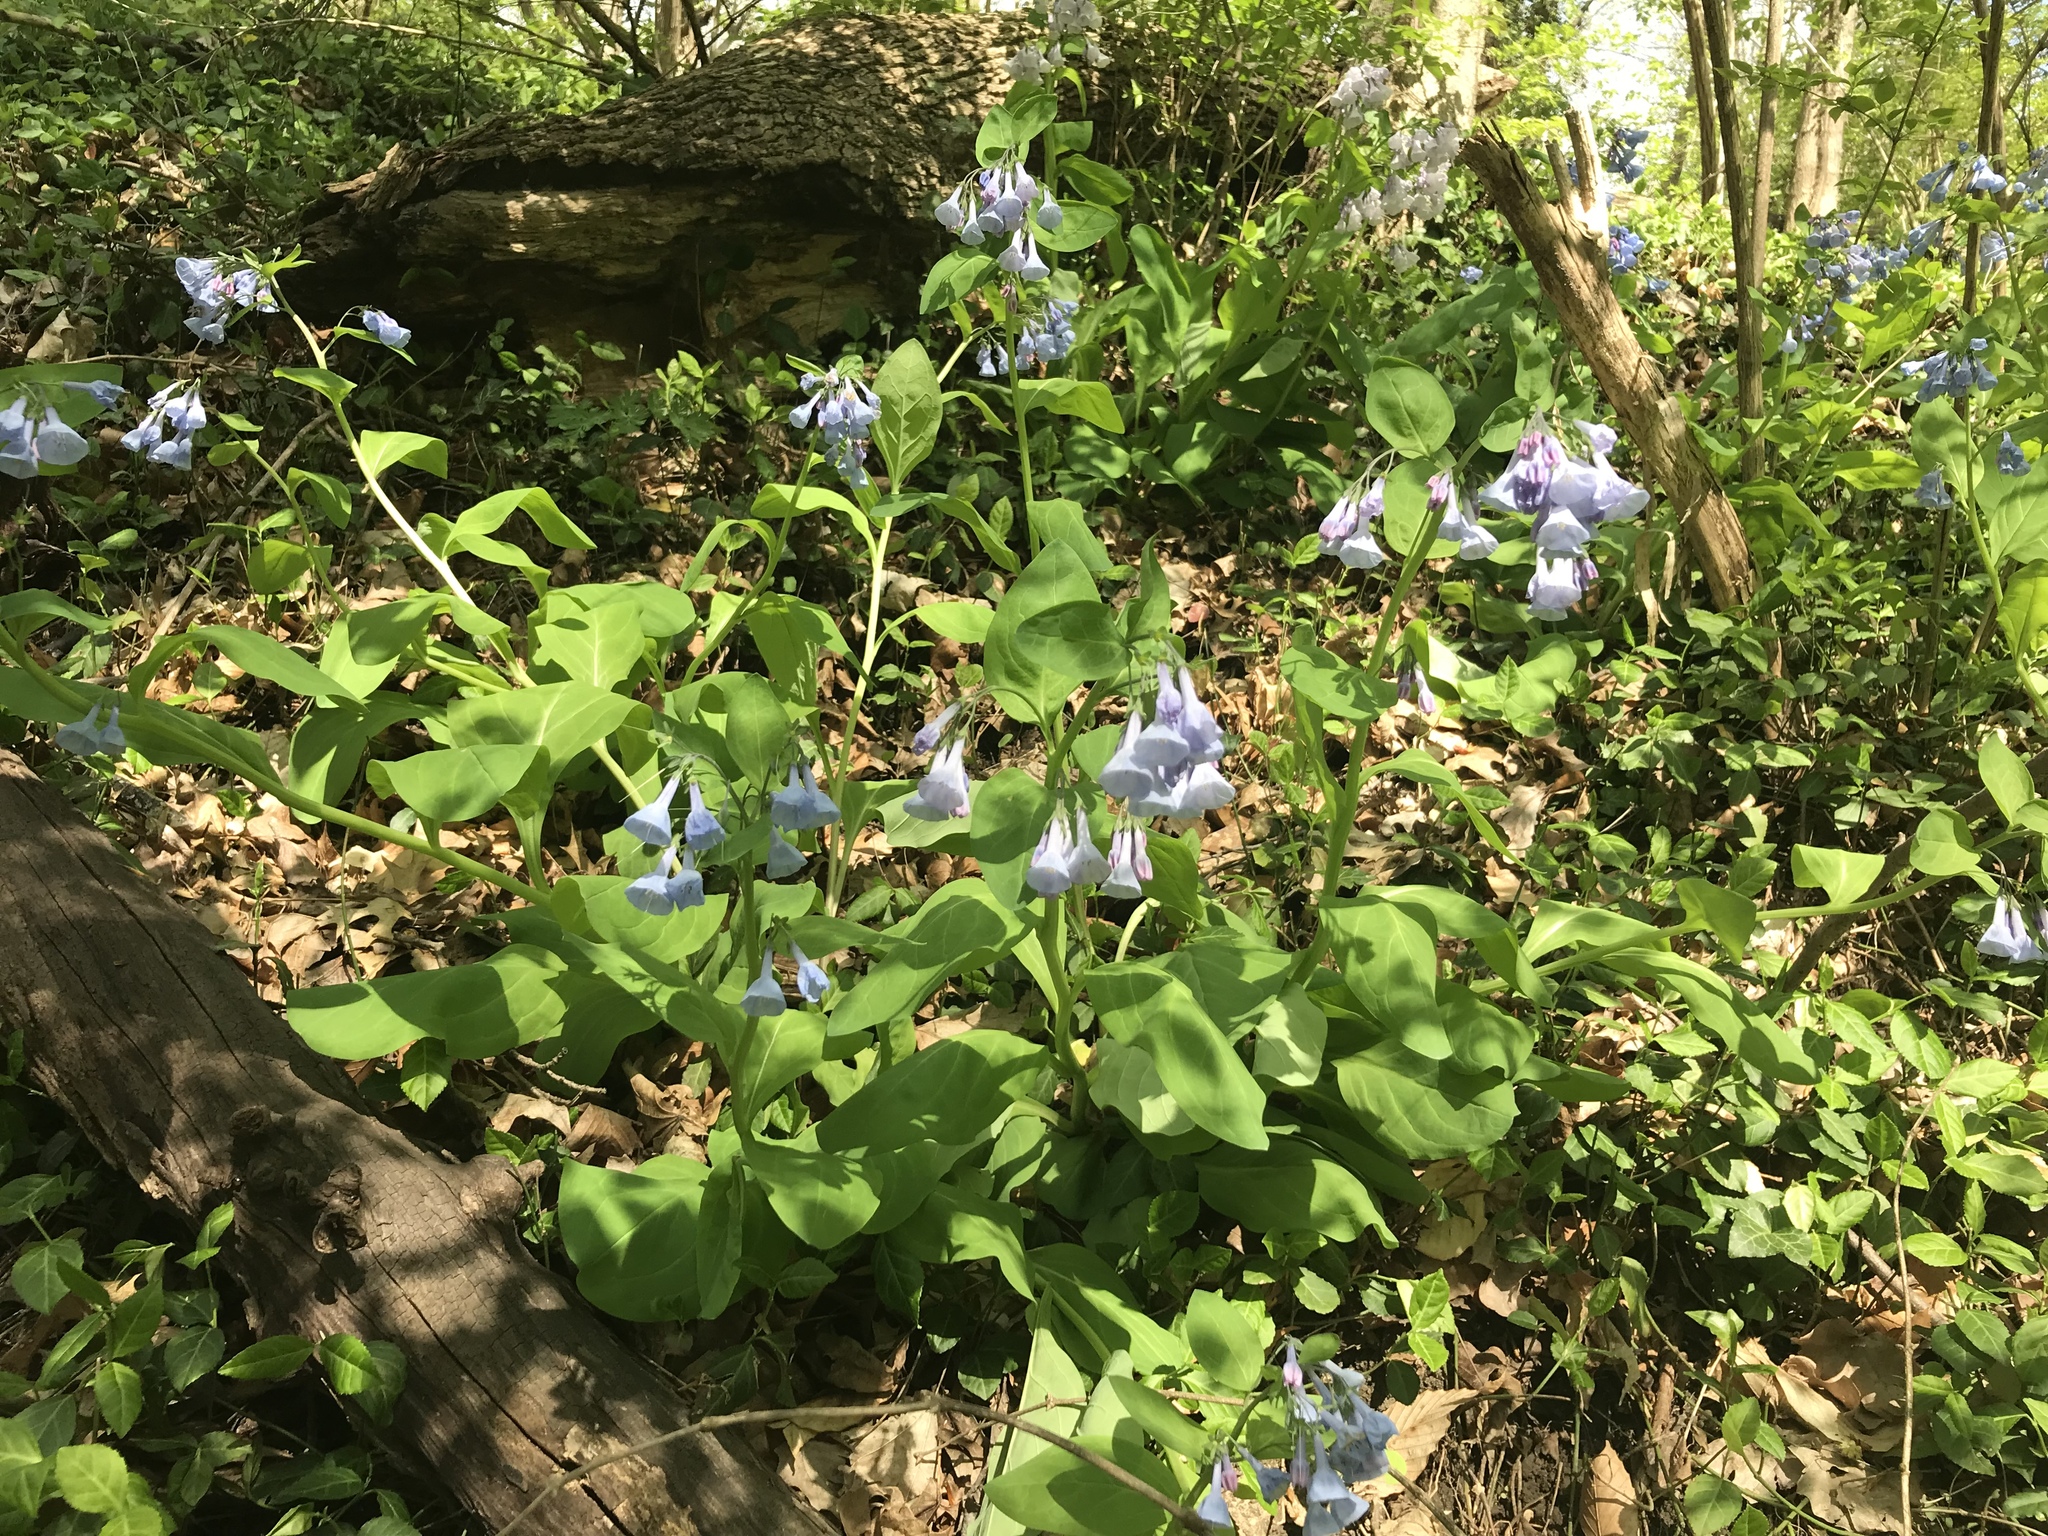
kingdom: Plantae
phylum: Tracheophyta
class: Magnoliopsida
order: Boraginales
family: Boraginaceae
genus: Mertensia
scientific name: Mertensia virginica
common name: Virginia bluebells
